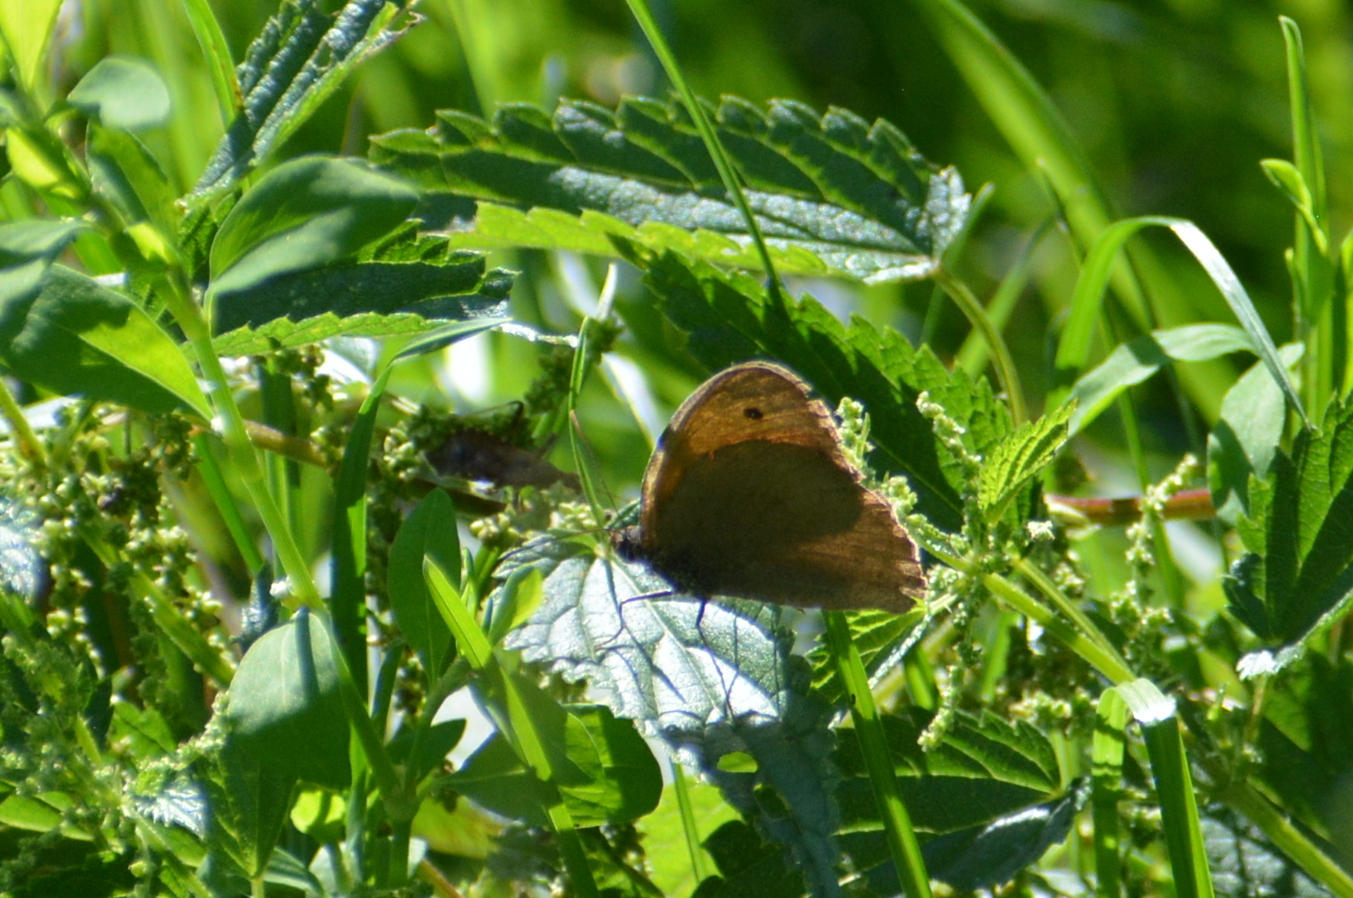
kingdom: Animalia
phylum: Arthropoda
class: Insecta
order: Lepidoptera
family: Nymphalidae
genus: Maniola
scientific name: Maniola jurtina
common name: Meadow brown
